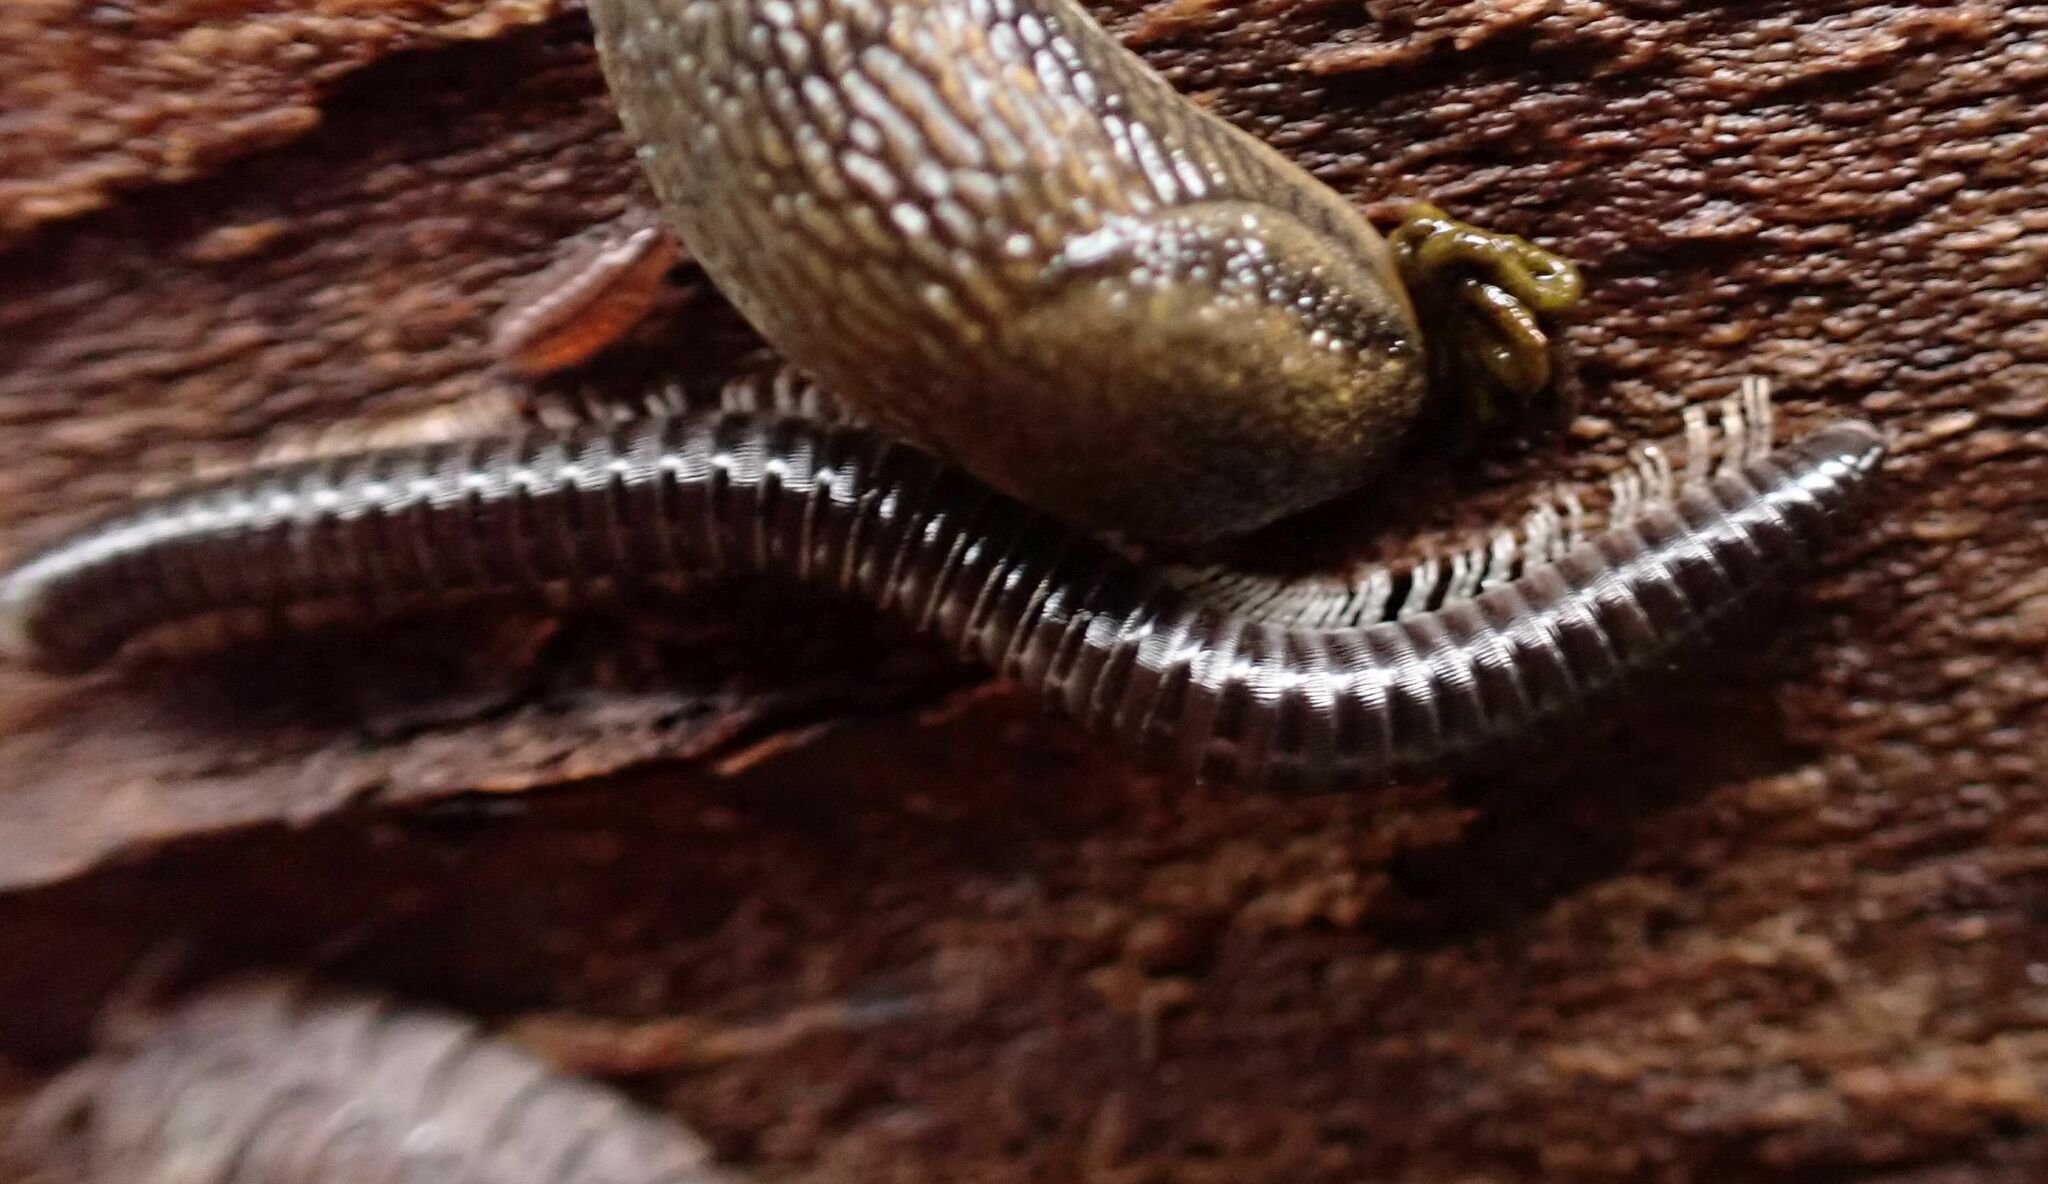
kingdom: Animalia
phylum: Arthropoda
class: Diplopoda
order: Julida
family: Julidae
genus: Tachypodoiulus
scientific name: Tachypodoiulus niger
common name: White-legged snake millipede
